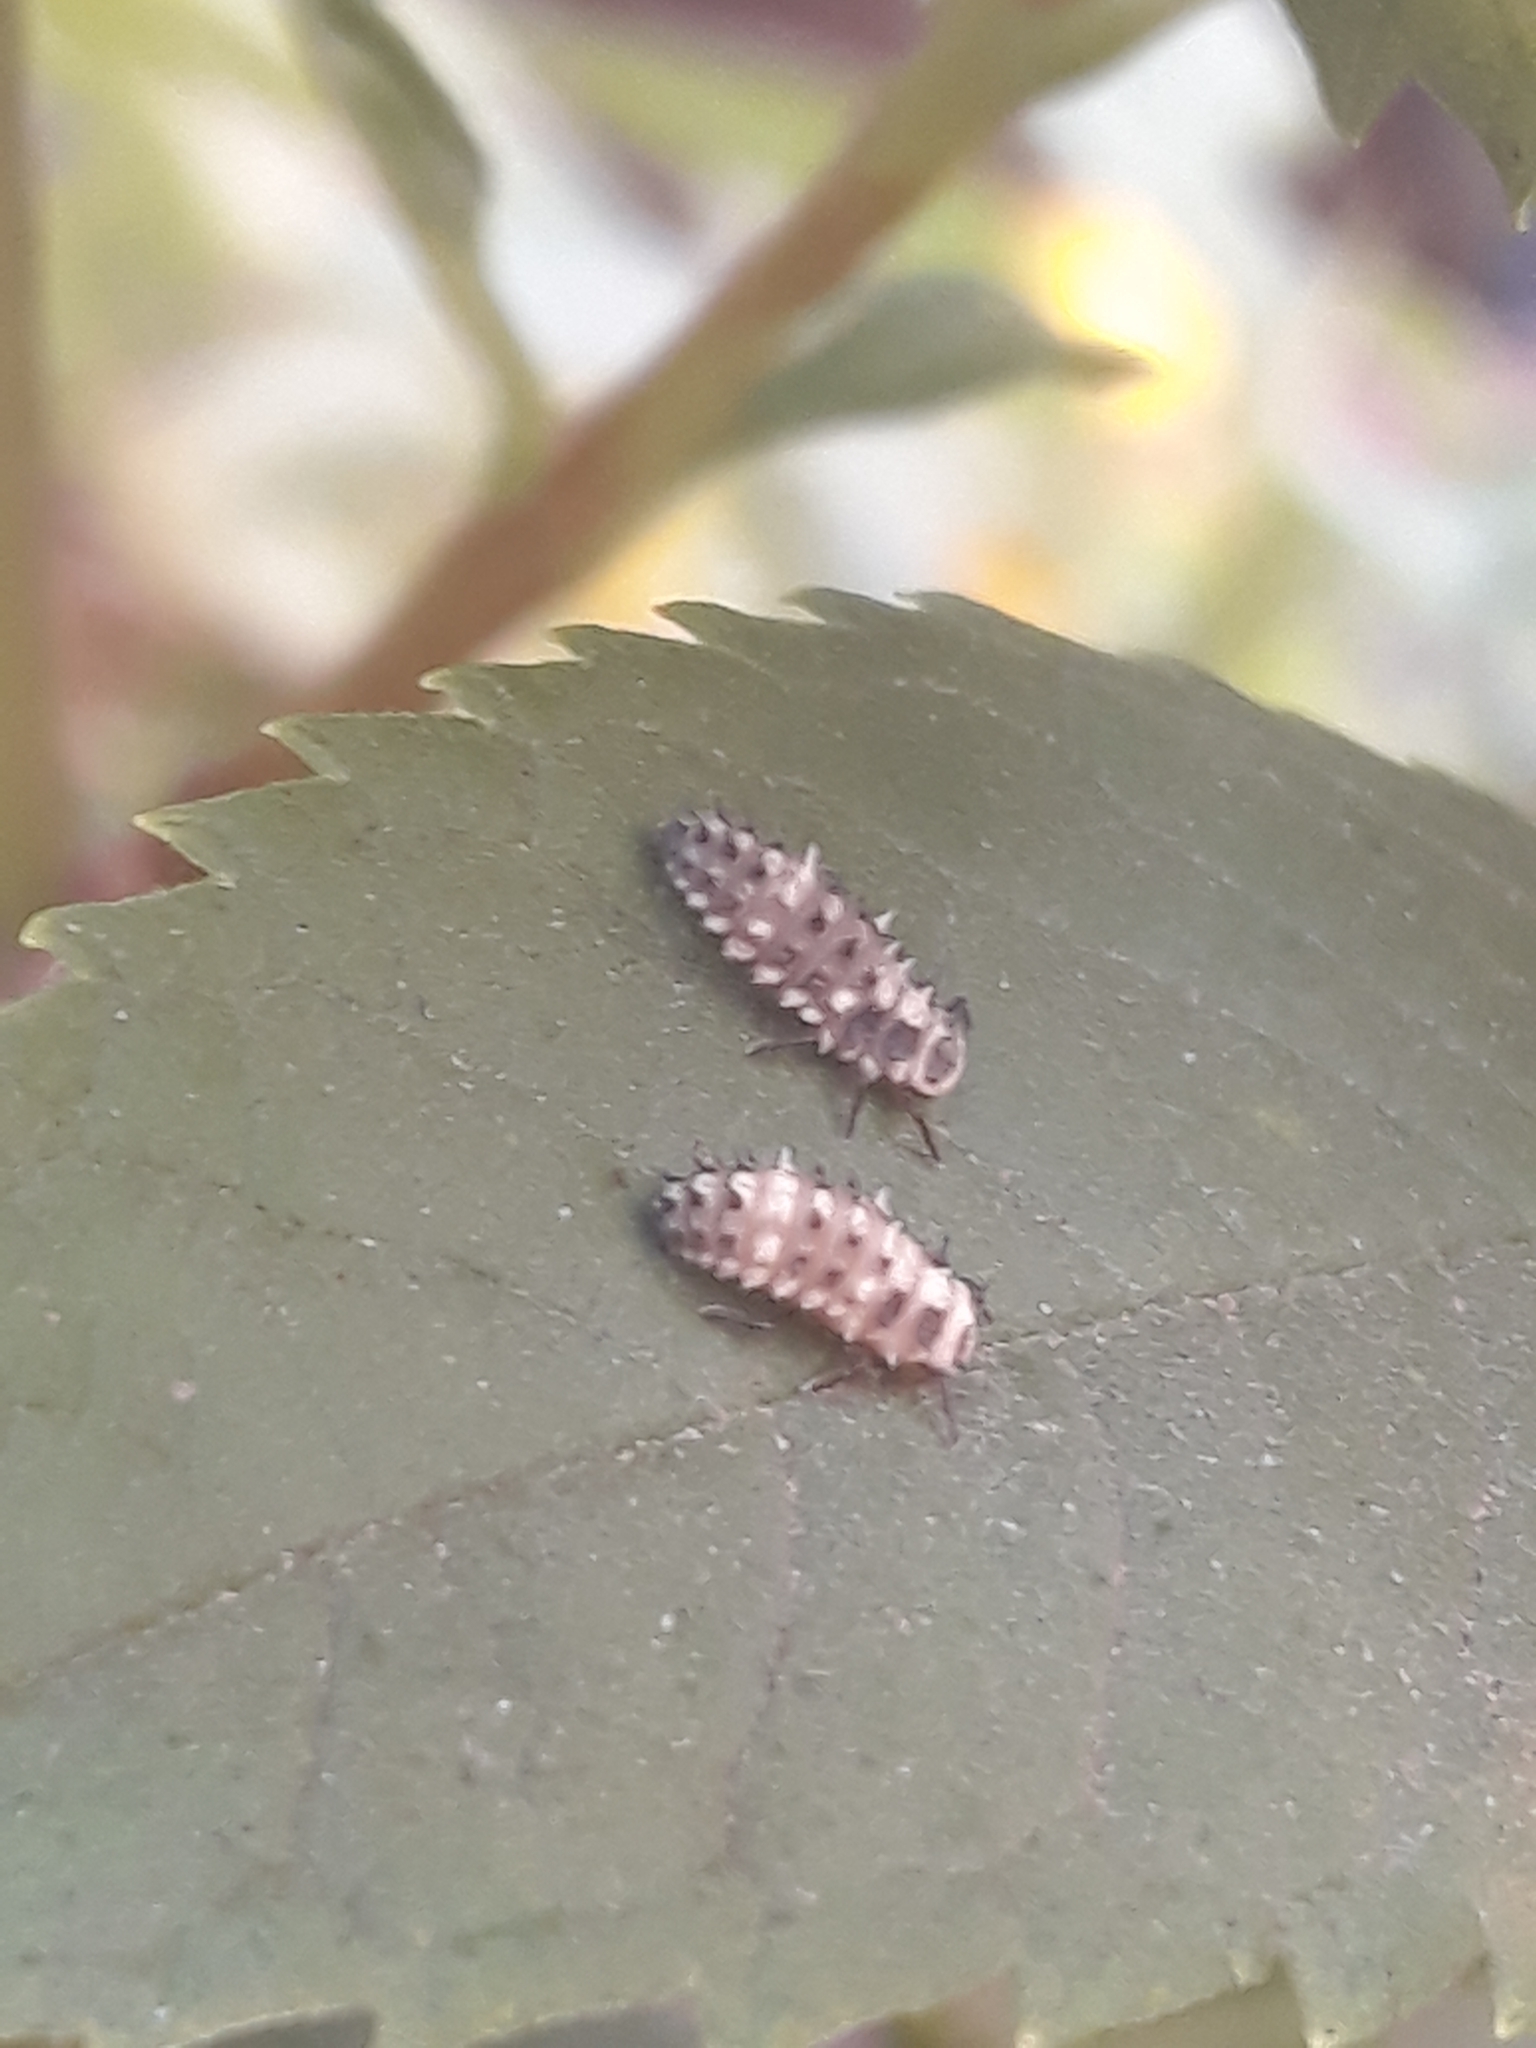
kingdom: Animalia
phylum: Arthropoda
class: Insecta
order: Coleoptera
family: Coccinellidae
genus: Cheilomenes
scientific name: Cheilomenes sexmaculata
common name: Ladybird beetle
